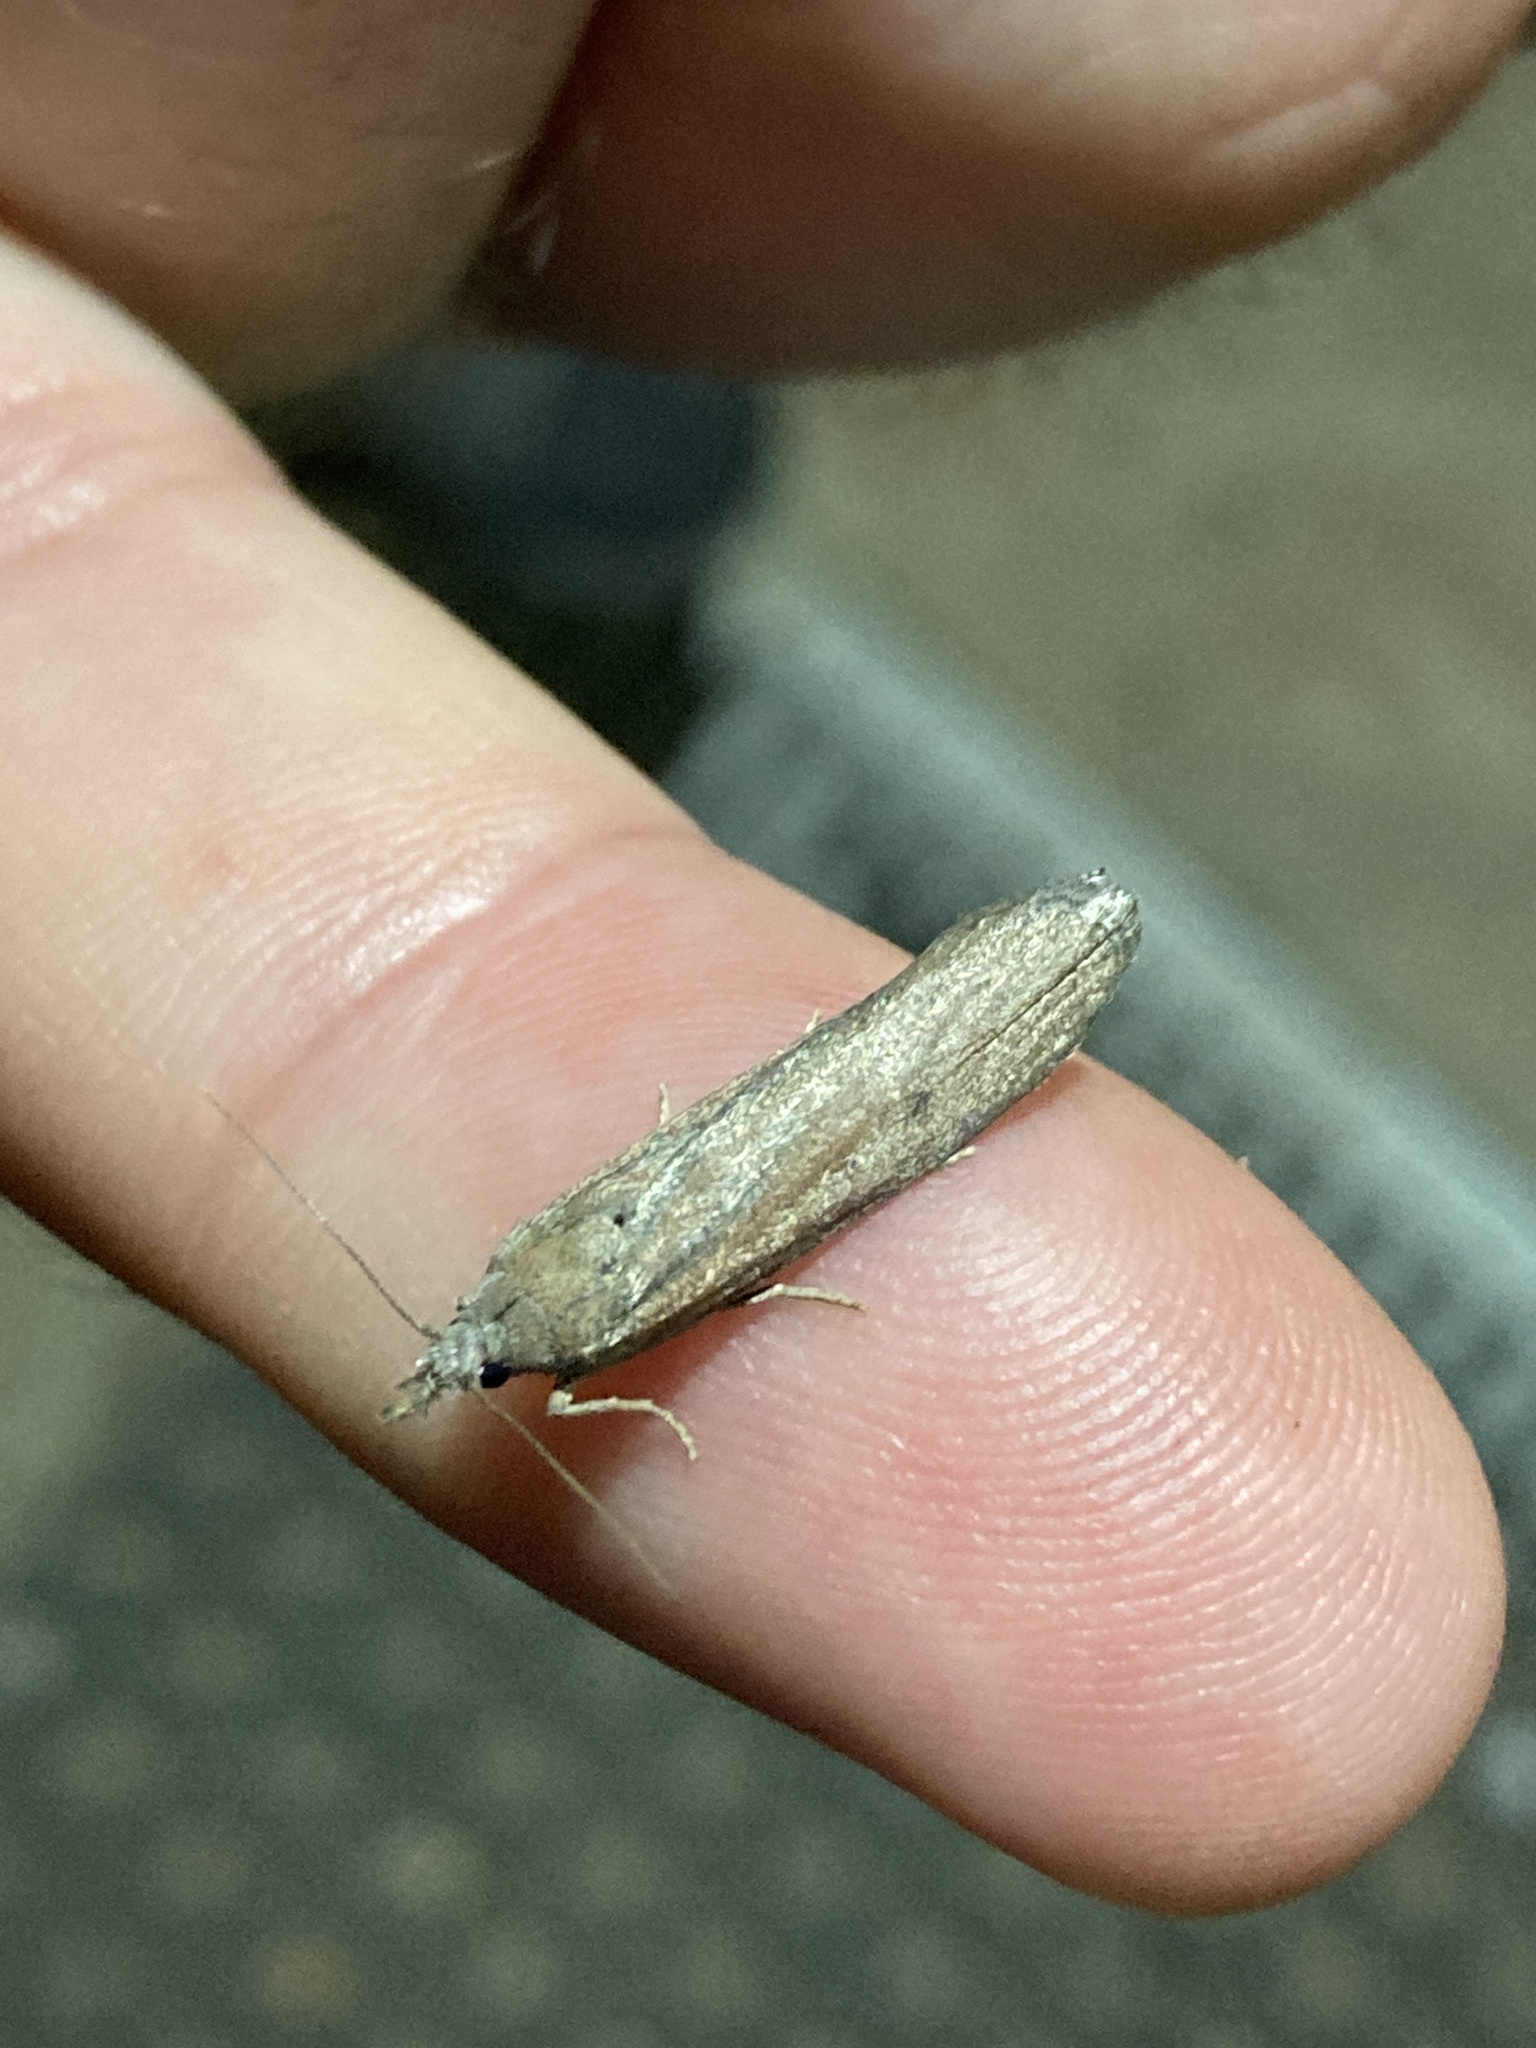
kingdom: Animalia
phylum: Arthropoda
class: Insecta
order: Lepidoptera
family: Pyralidae
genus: Aphomia
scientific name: Aphomia zelleri
